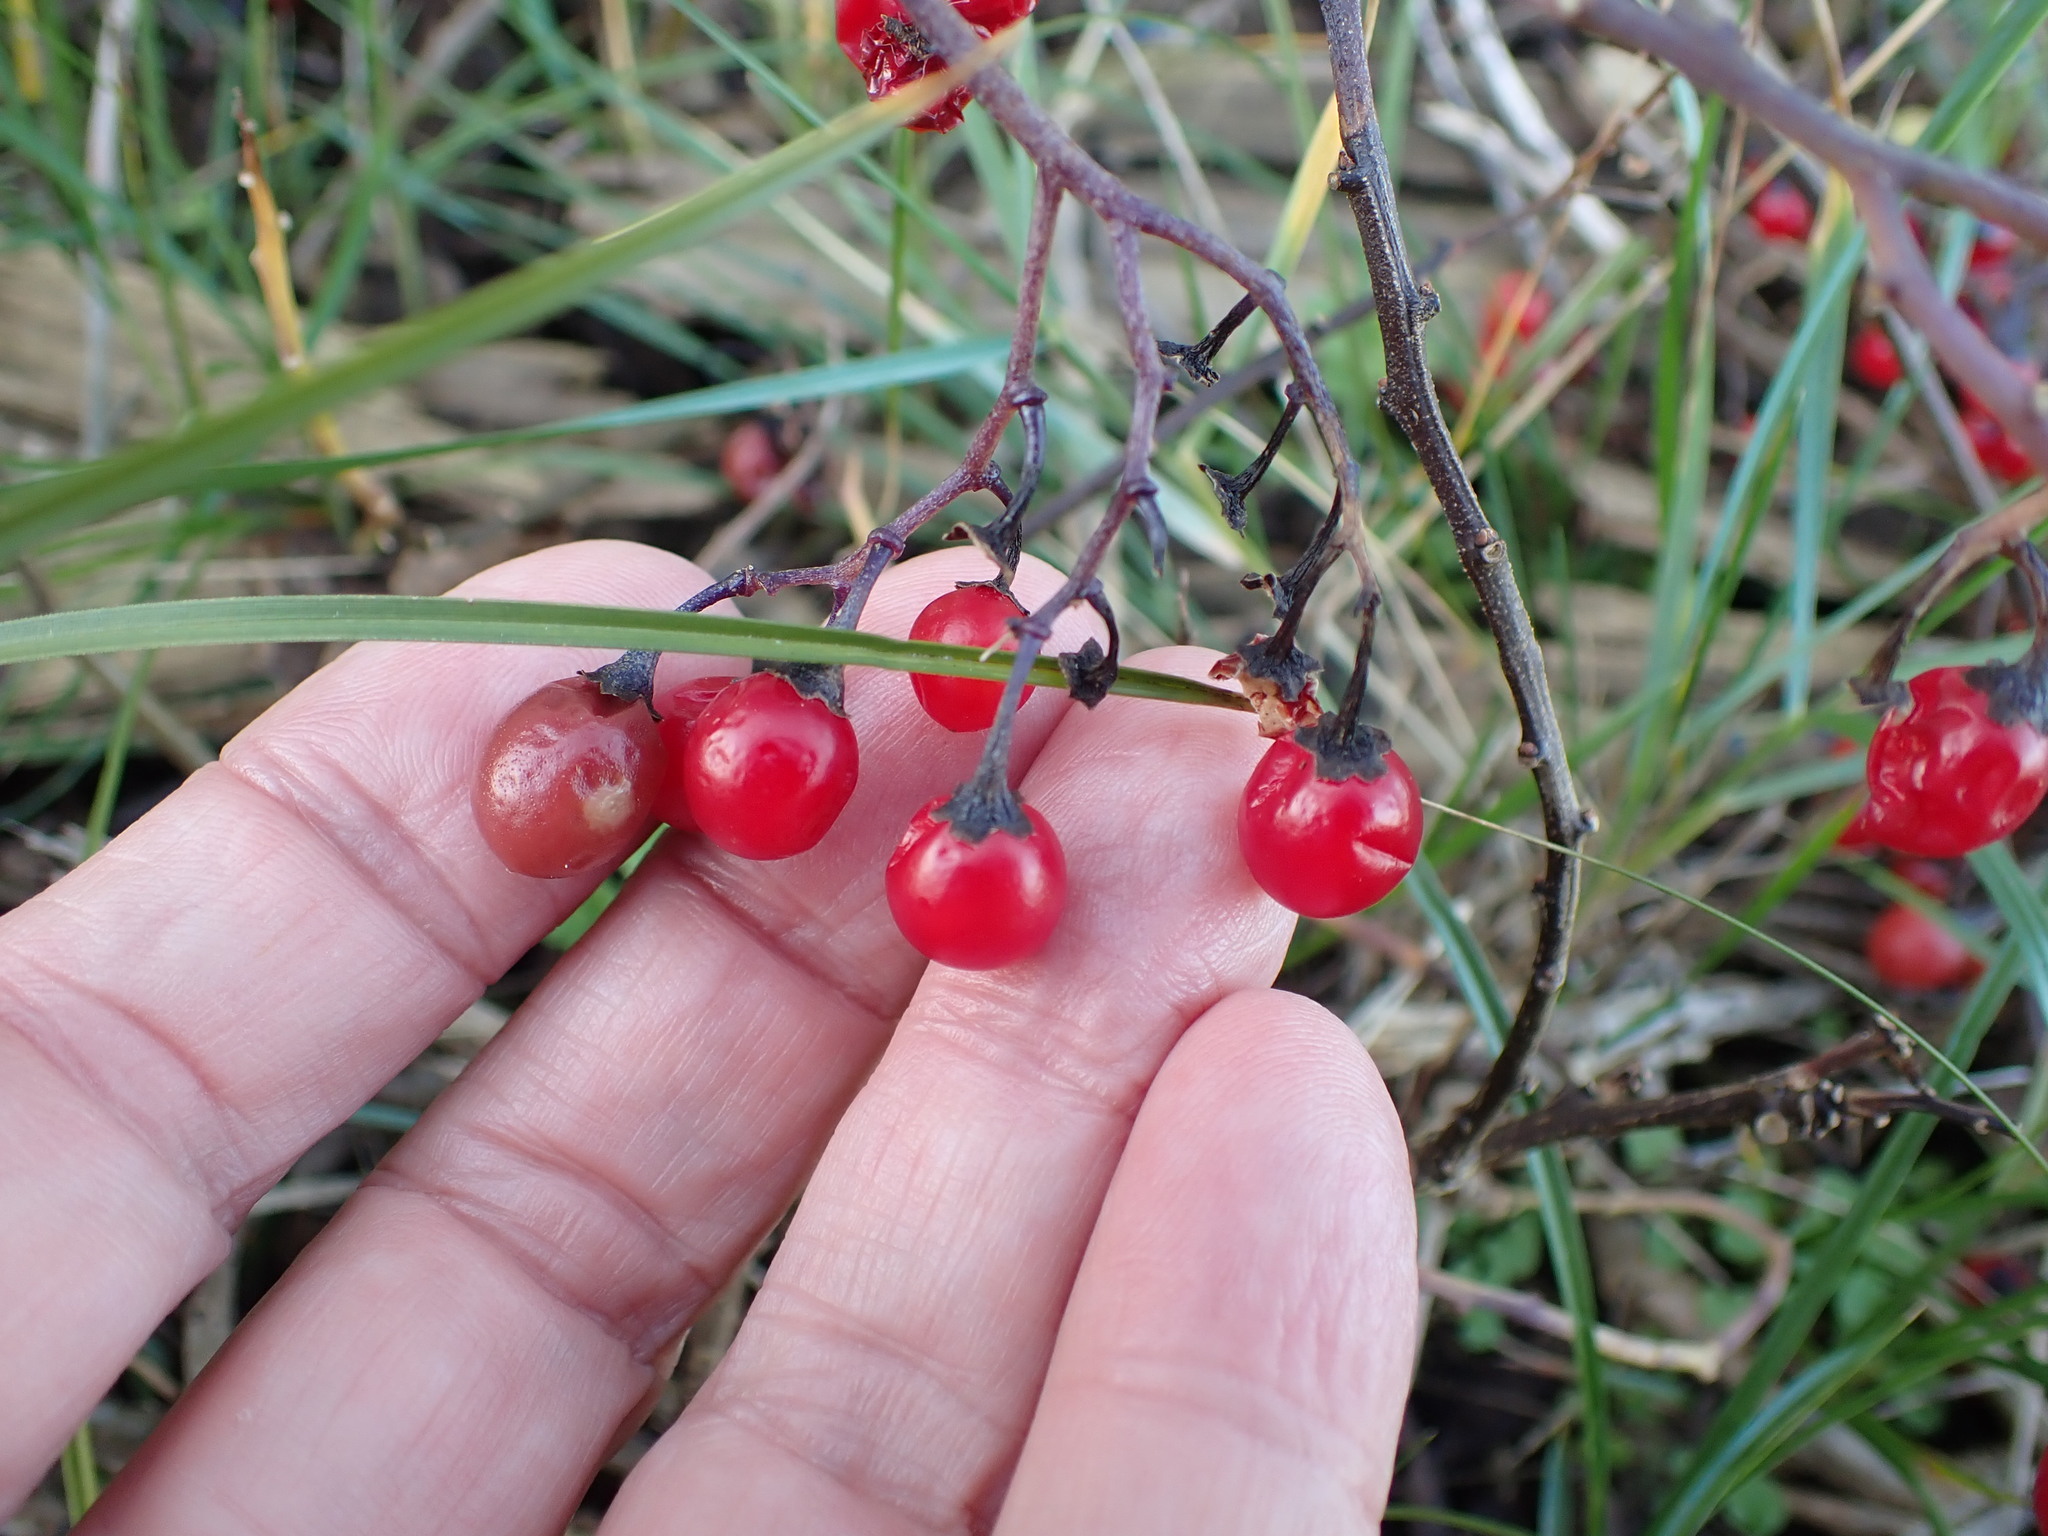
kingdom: Plantae
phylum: Tracheophyta
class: Magnoliopsida
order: Solanales
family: Solanaceae
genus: Solanum
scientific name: Solanum dulcamara
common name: Climbing nightshade
